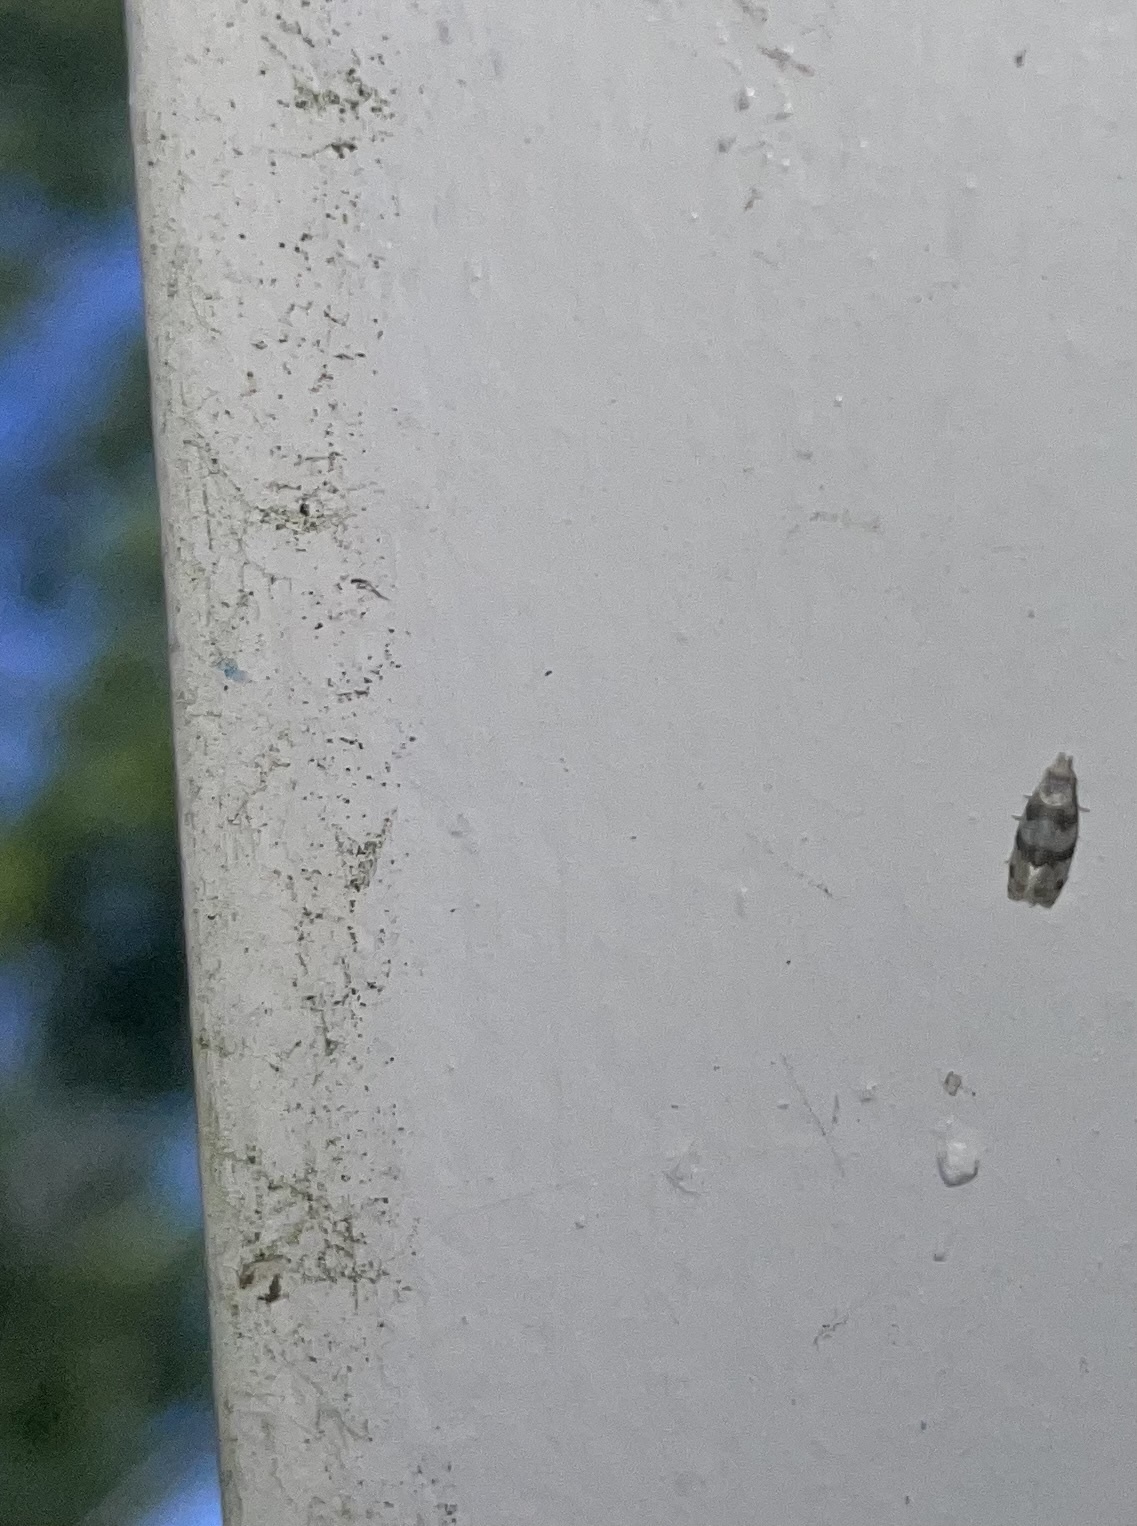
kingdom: Animalia
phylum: Arthropoda
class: Insecta
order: Lepidoptera
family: Tortricidae
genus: Aethes
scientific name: Aethes argentilimitana
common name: Silver-bordered aethes
